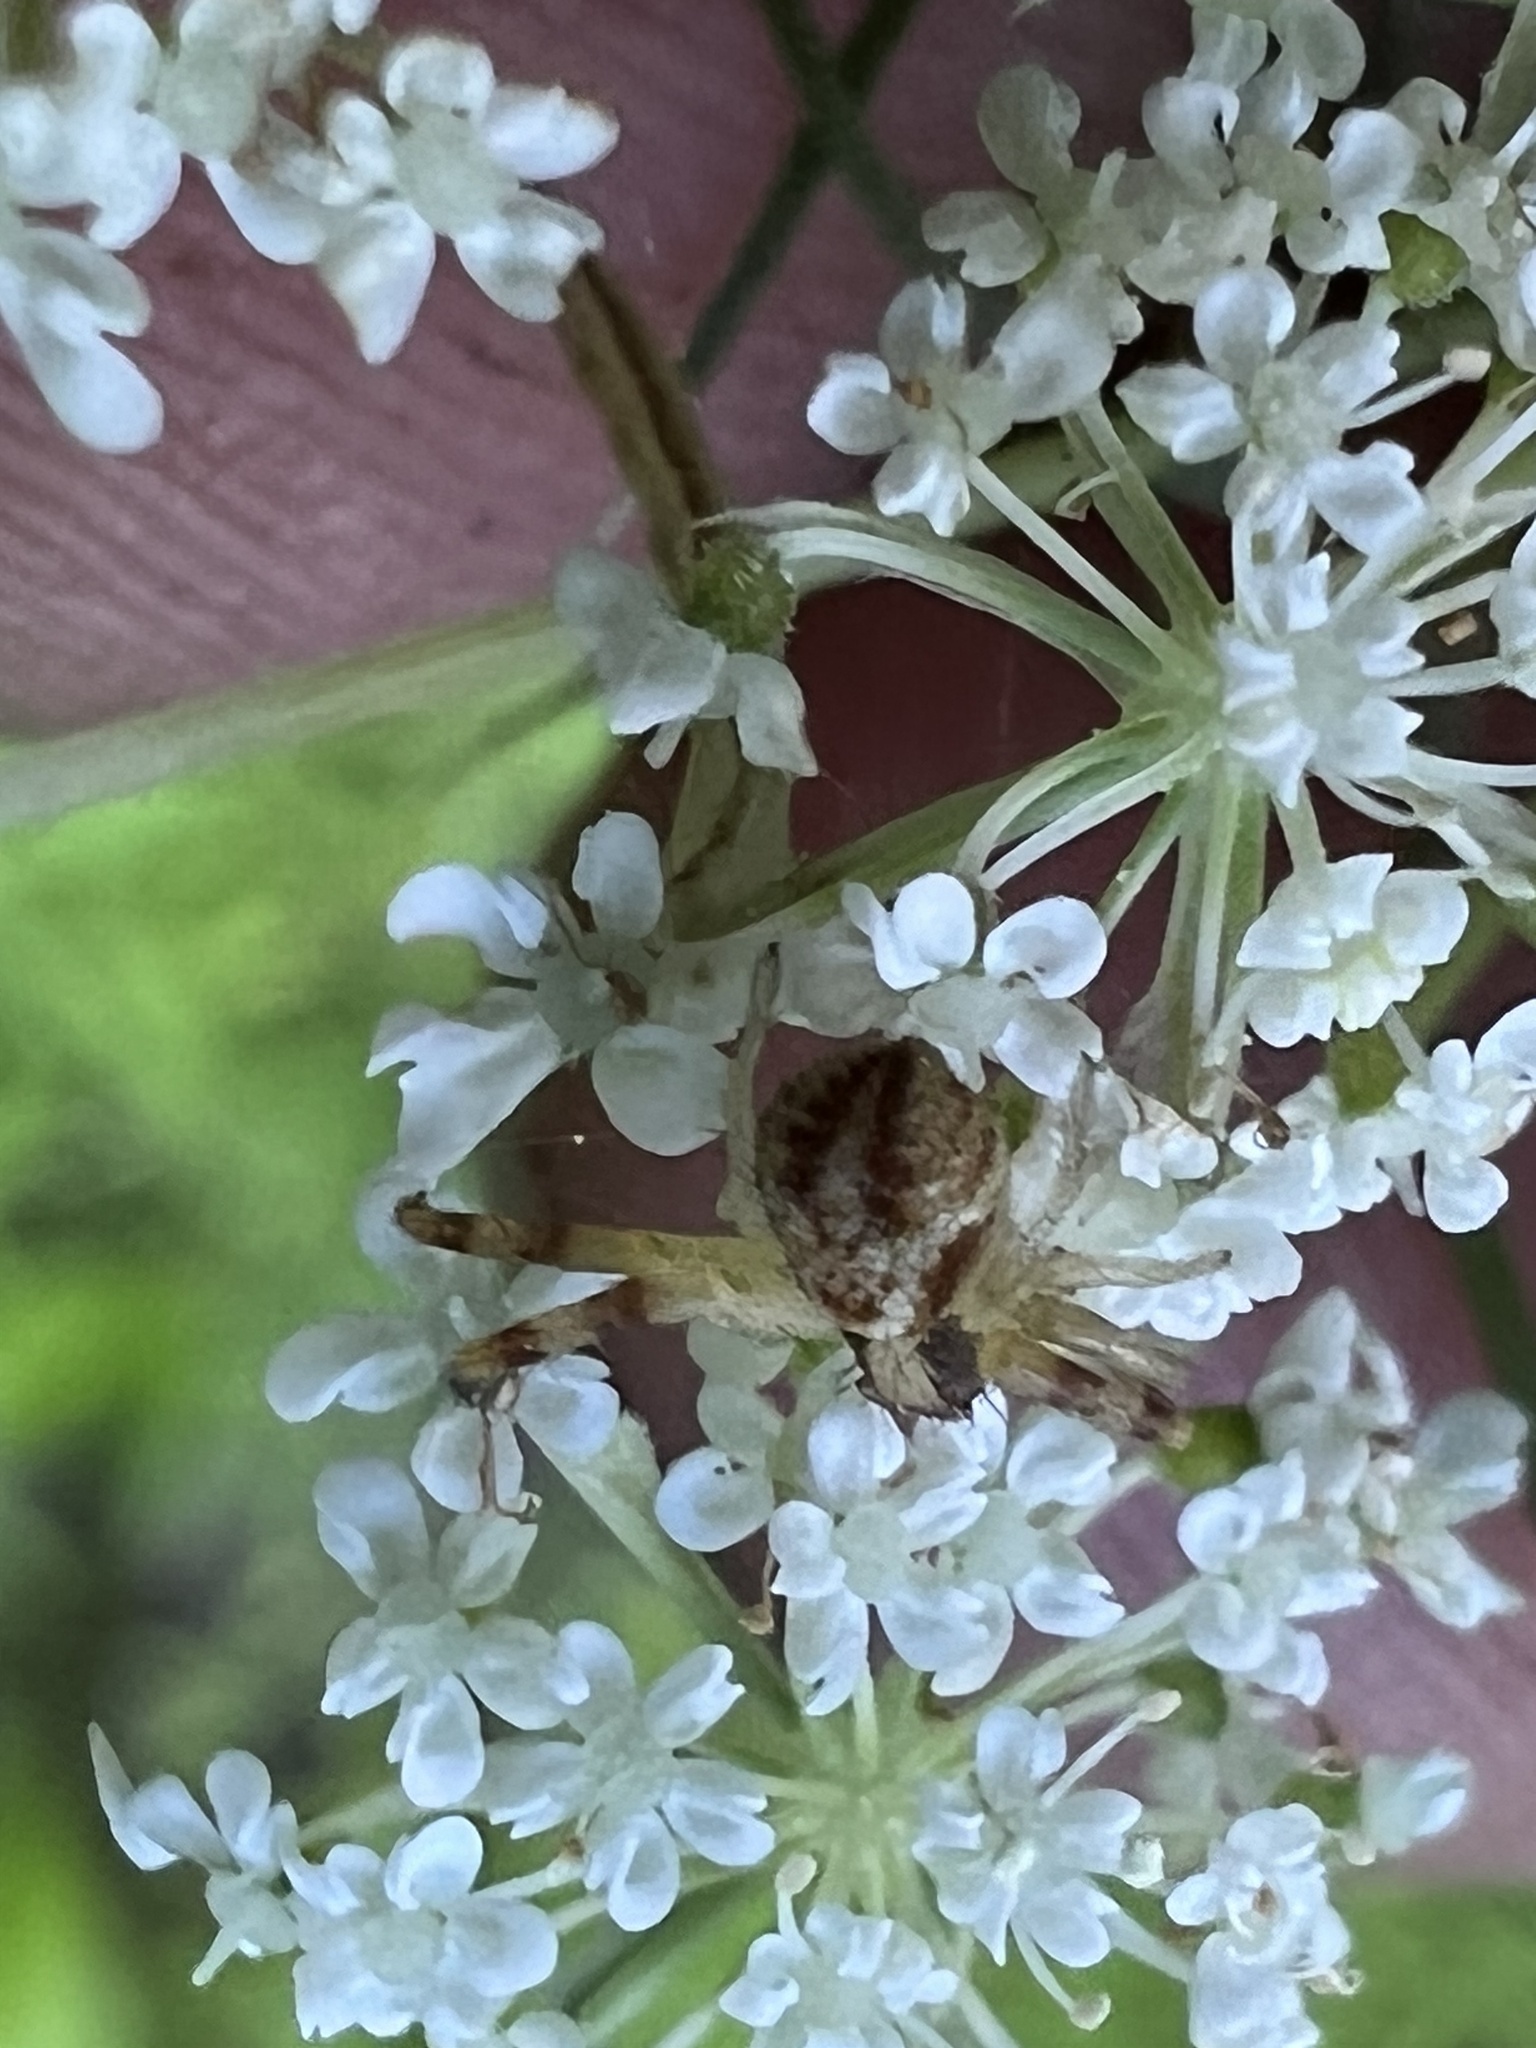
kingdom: Animalia
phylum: Arthropoda
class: Arachnida
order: Araneae
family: Thomisidae
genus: Mecaphesa
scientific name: Mecaphesa asperata
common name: Crab spiders
